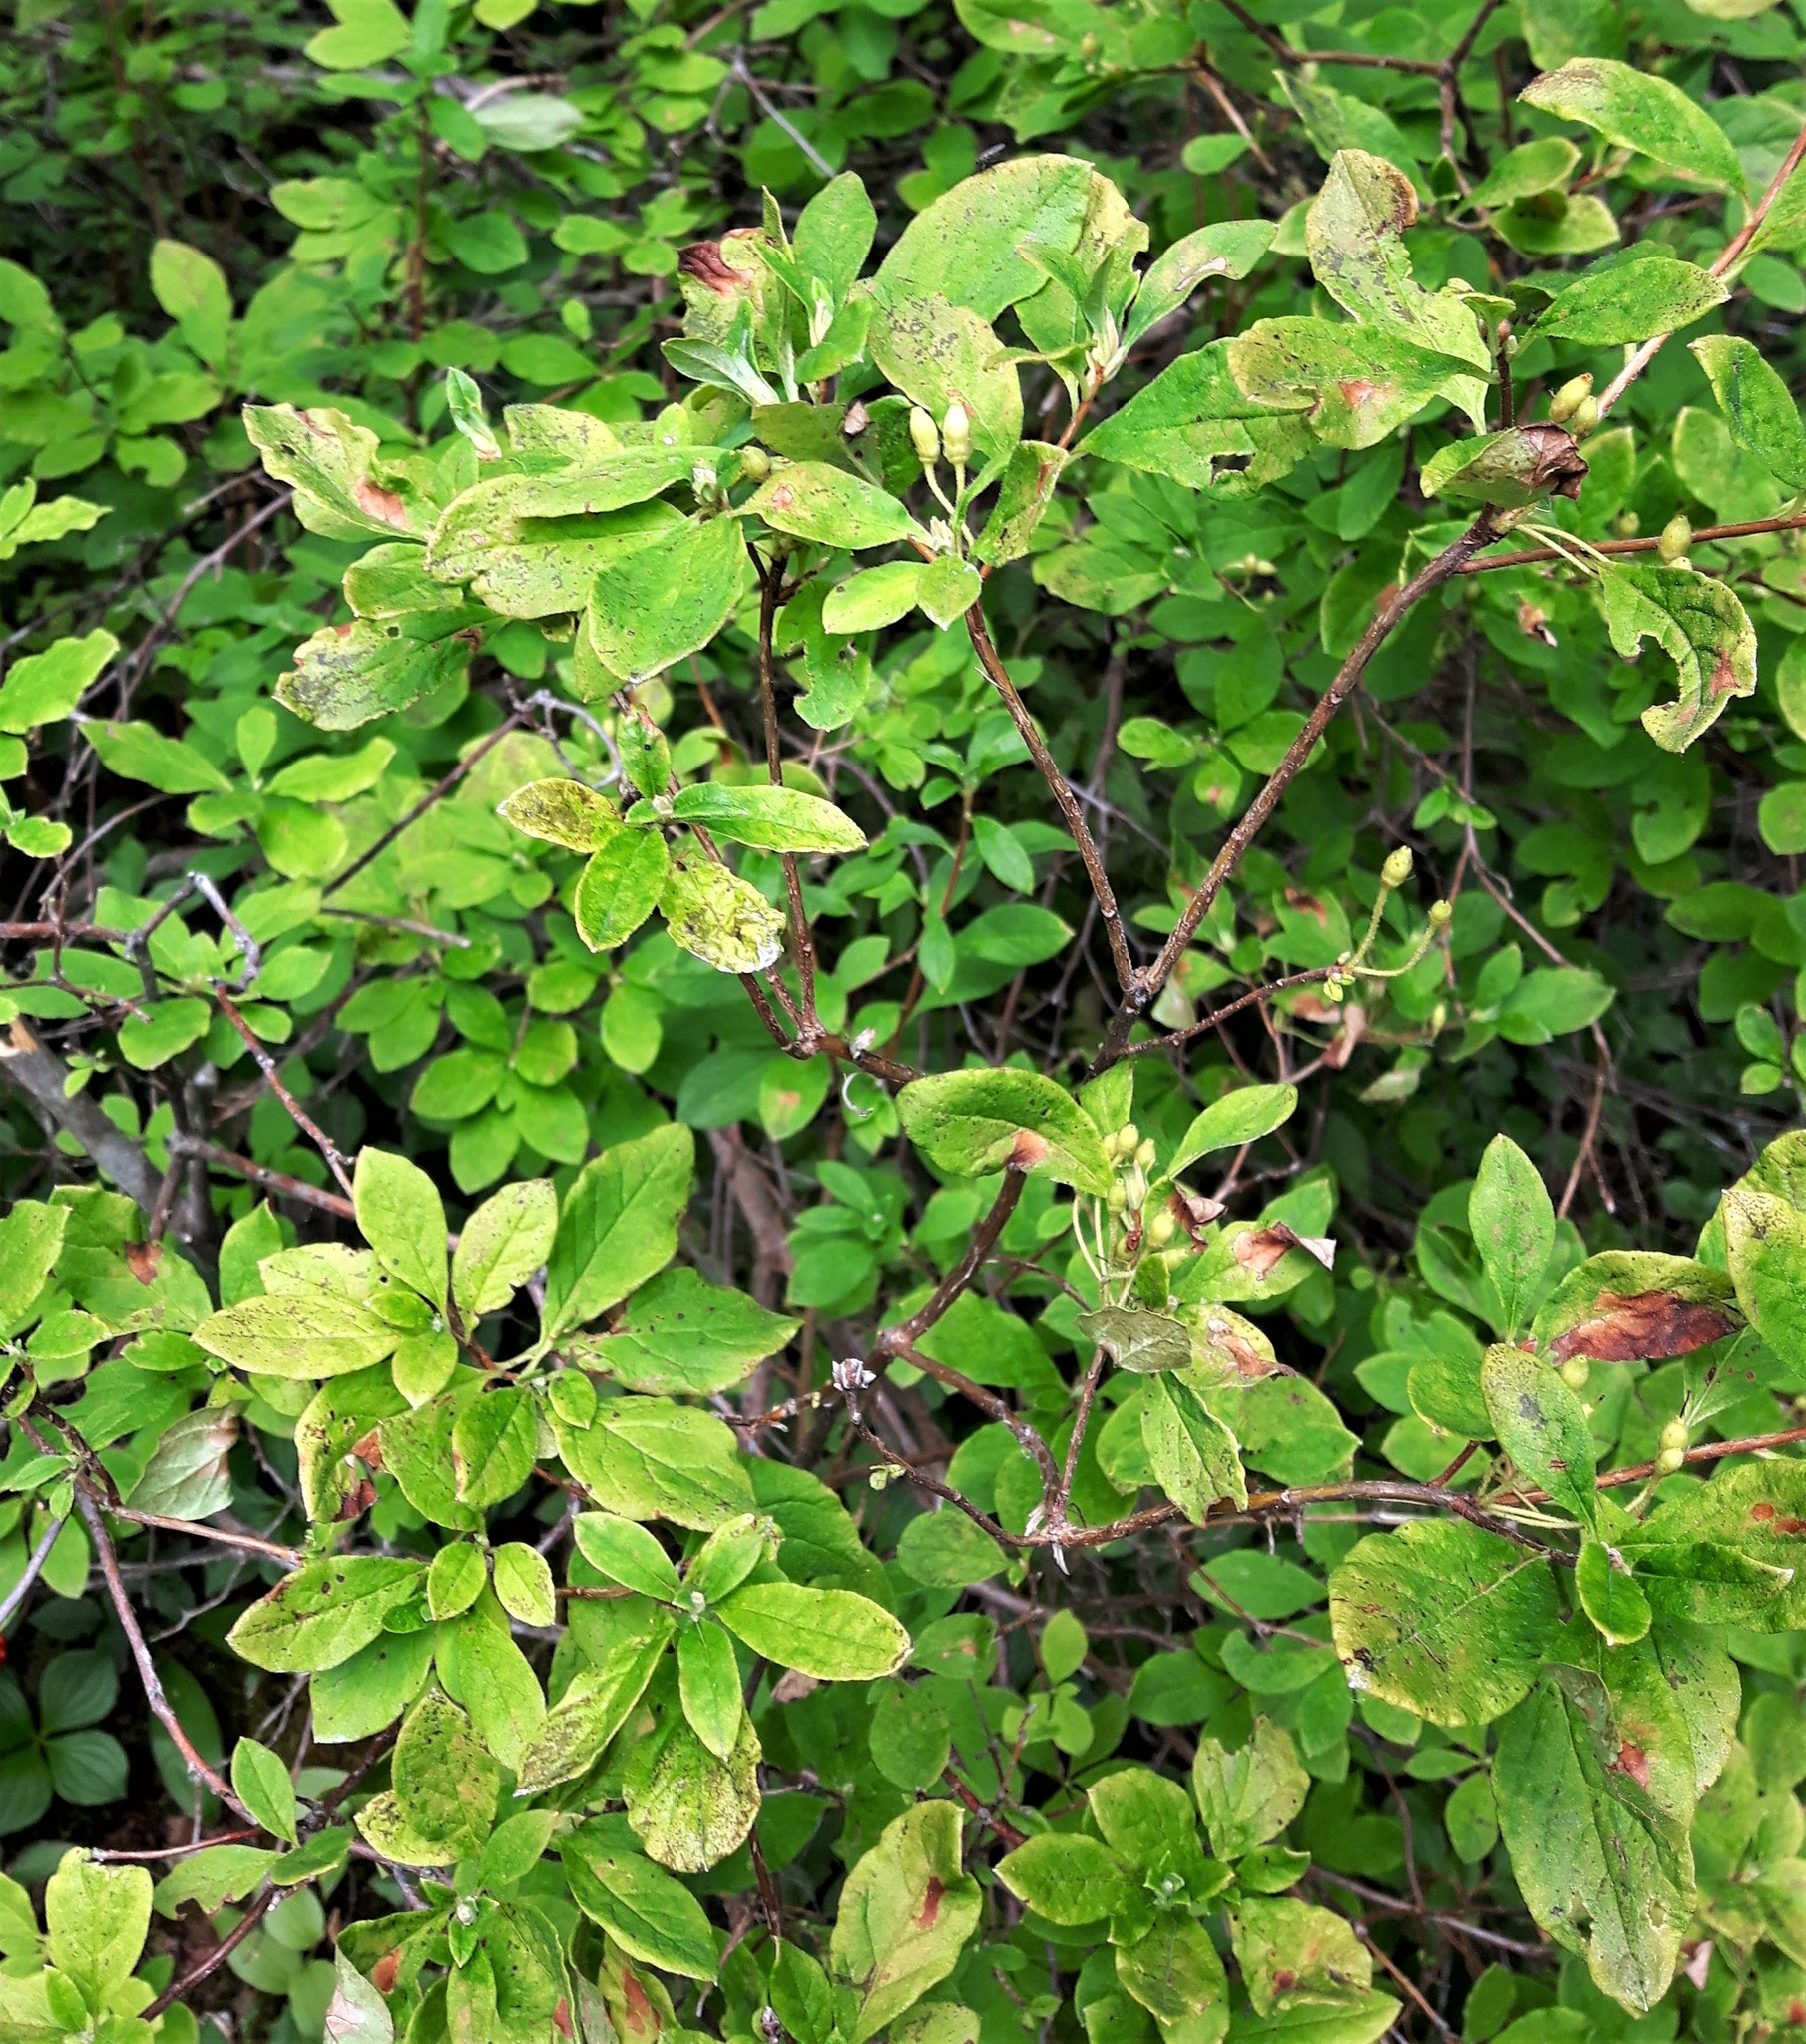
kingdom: Plantae
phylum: Tracheophyta
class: Magnoliopsida
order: Ericales
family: Ericaceae
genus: Rhododendron
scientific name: Rhododendron menziesii
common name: Pacific menziesia
